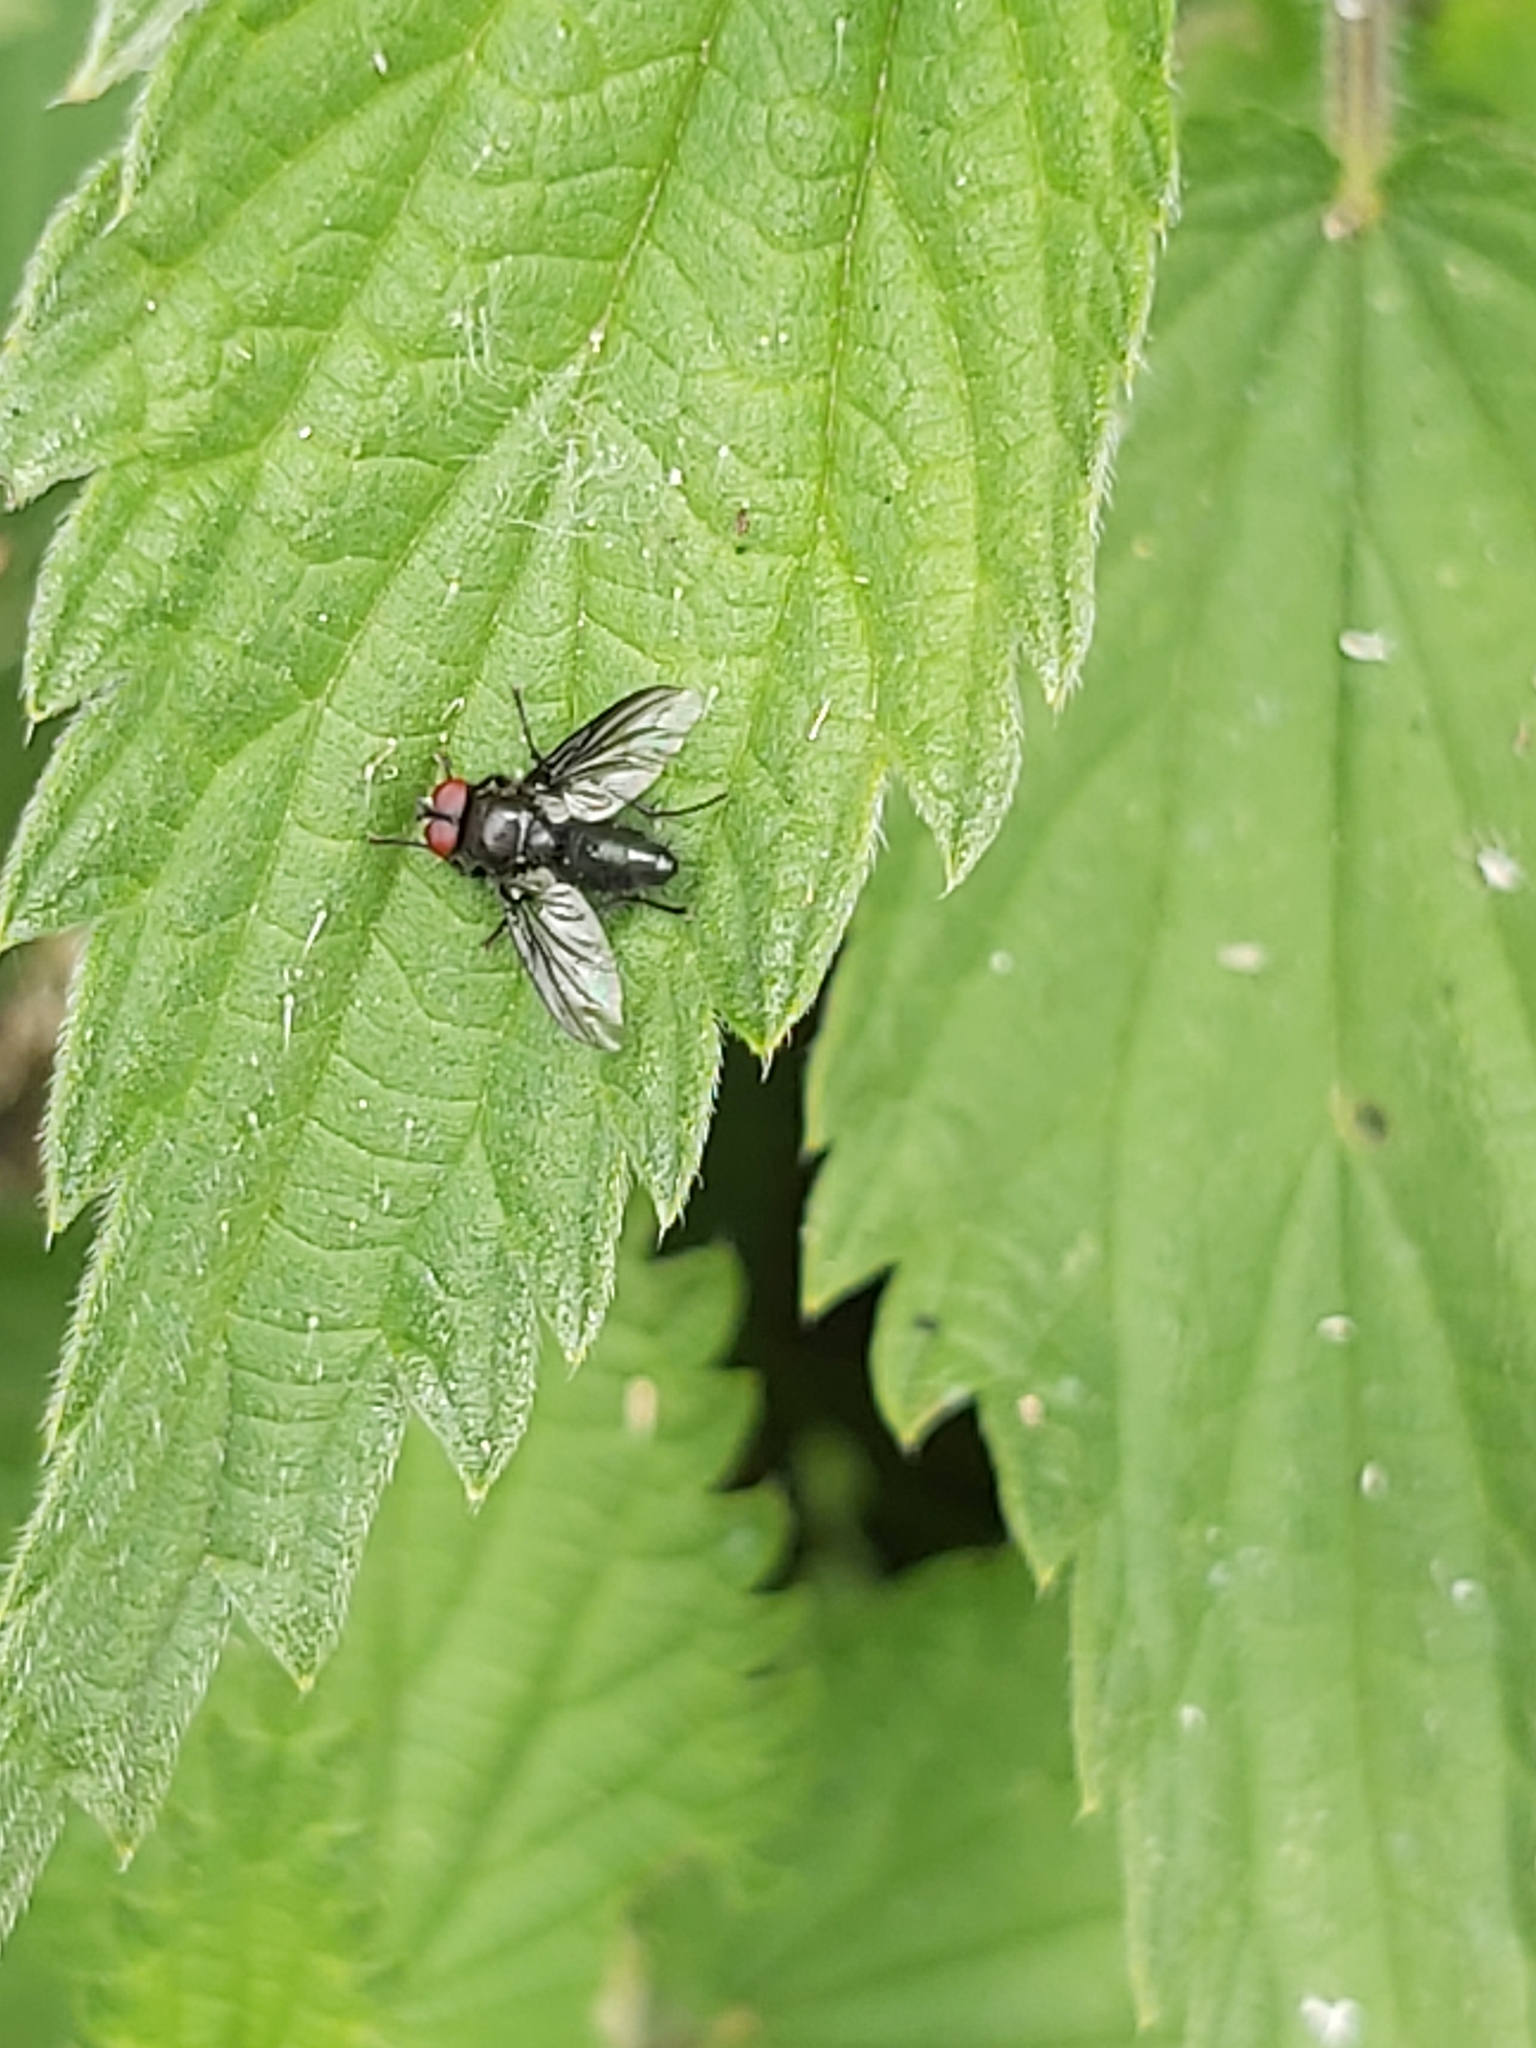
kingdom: Animalia
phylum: Arthropoda
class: Insecta
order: Diptera
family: Sarcophagidae
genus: Nyctia
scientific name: Nyctia halterata
